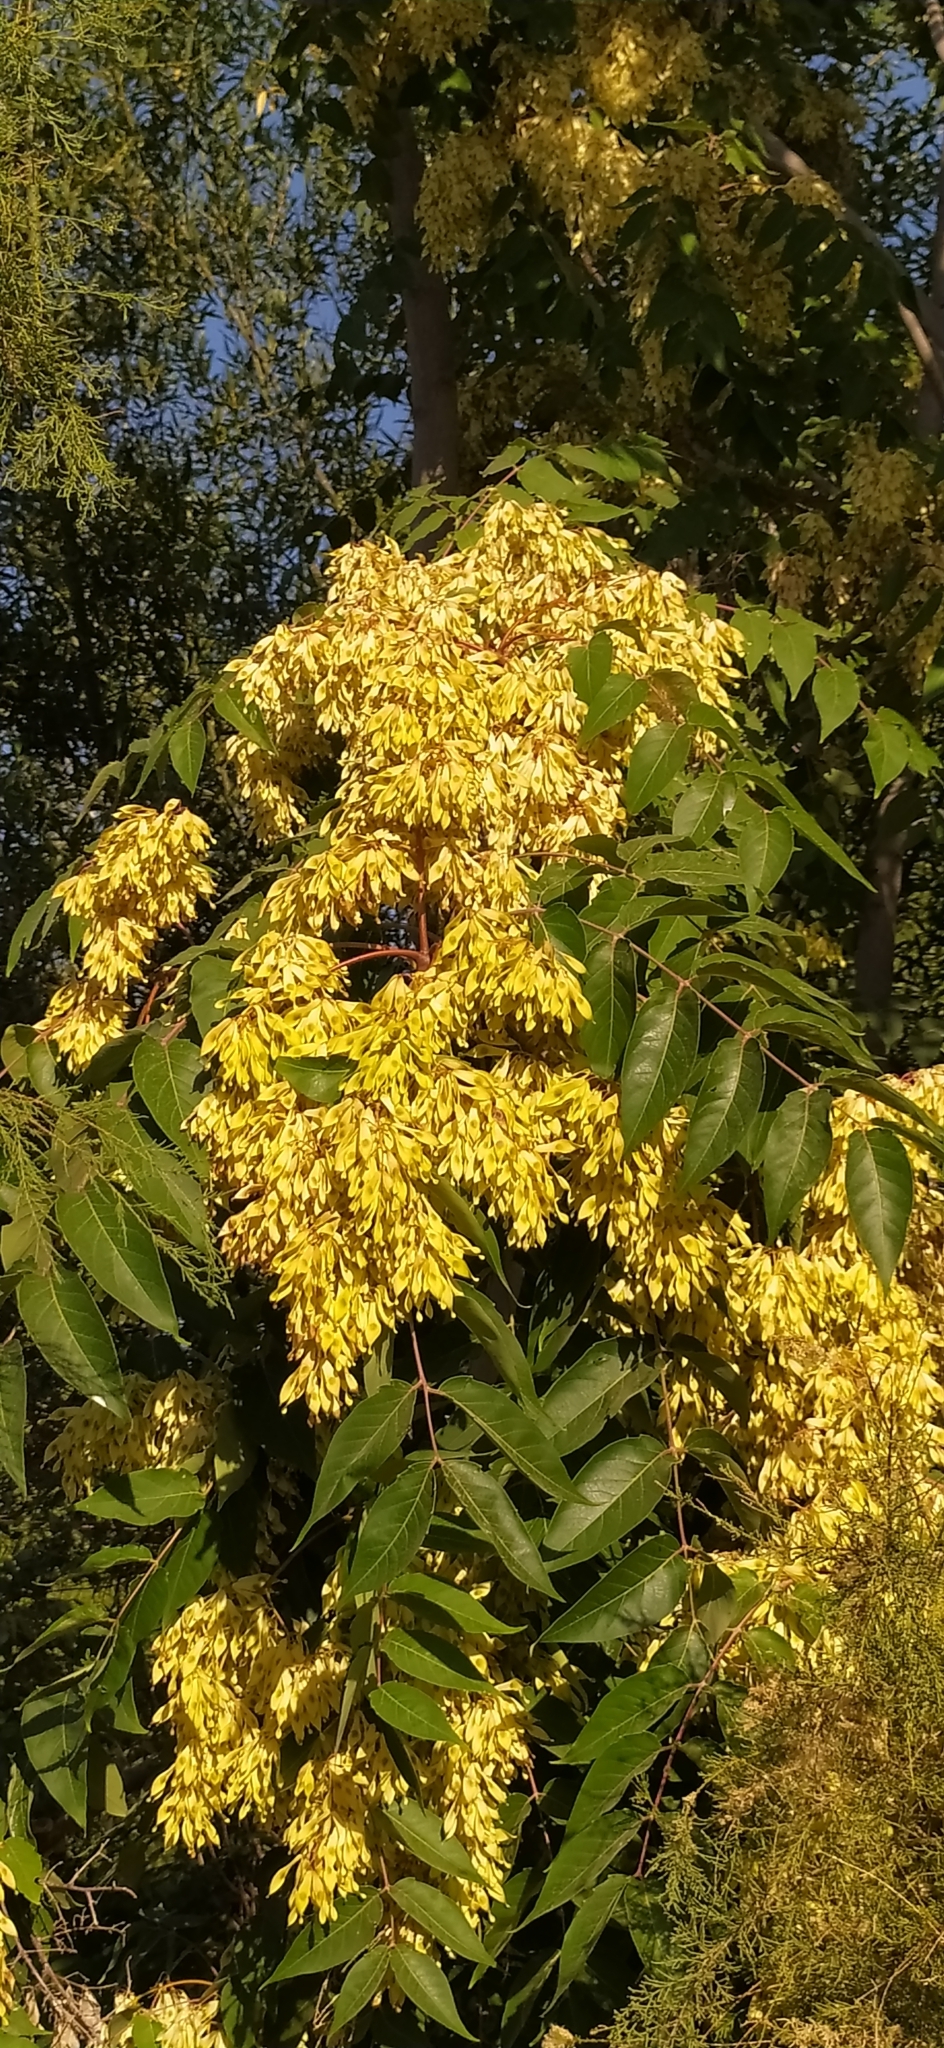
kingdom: Plantae
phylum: Tracheophyta
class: Magnoliopsida
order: Sapindales
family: Simaroubaceae
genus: Ailanthus
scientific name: Ailanthus altissima
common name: Tree-of-heaven
